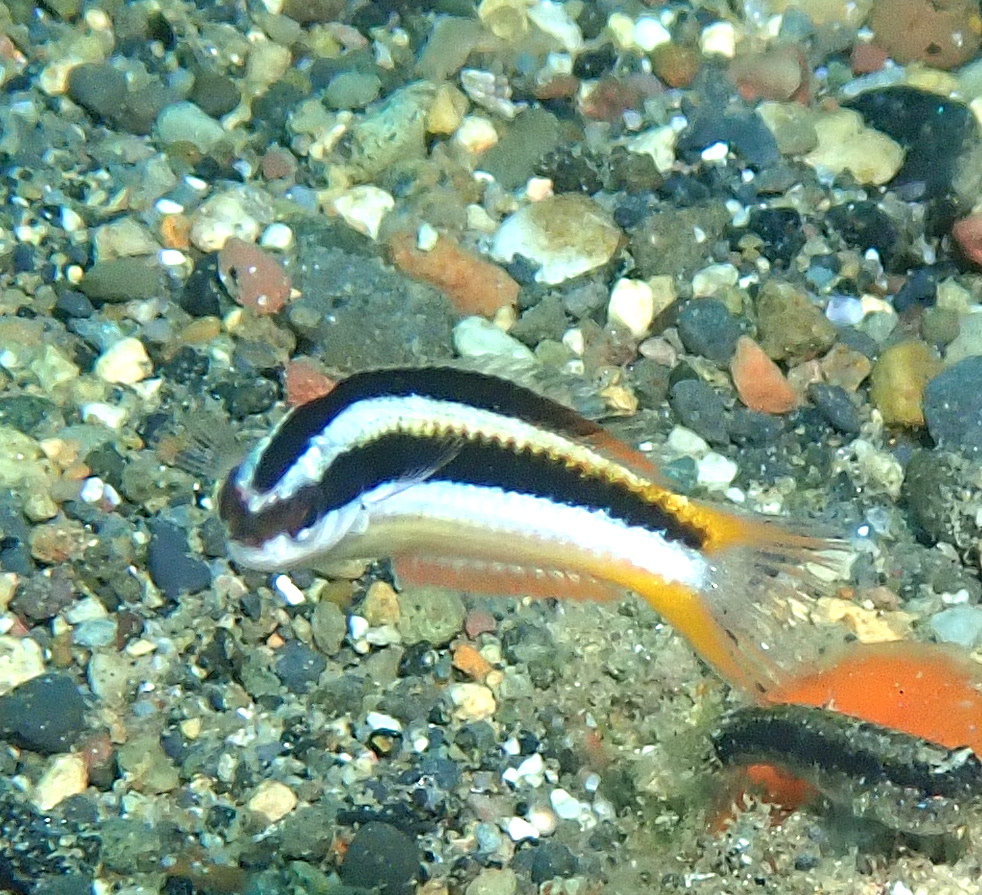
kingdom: Animalia
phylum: Chordata
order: Perciformes
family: Labridae
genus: Thalassoma
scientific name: Thalassoma amblycephalum
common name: Bluehead wrasse
